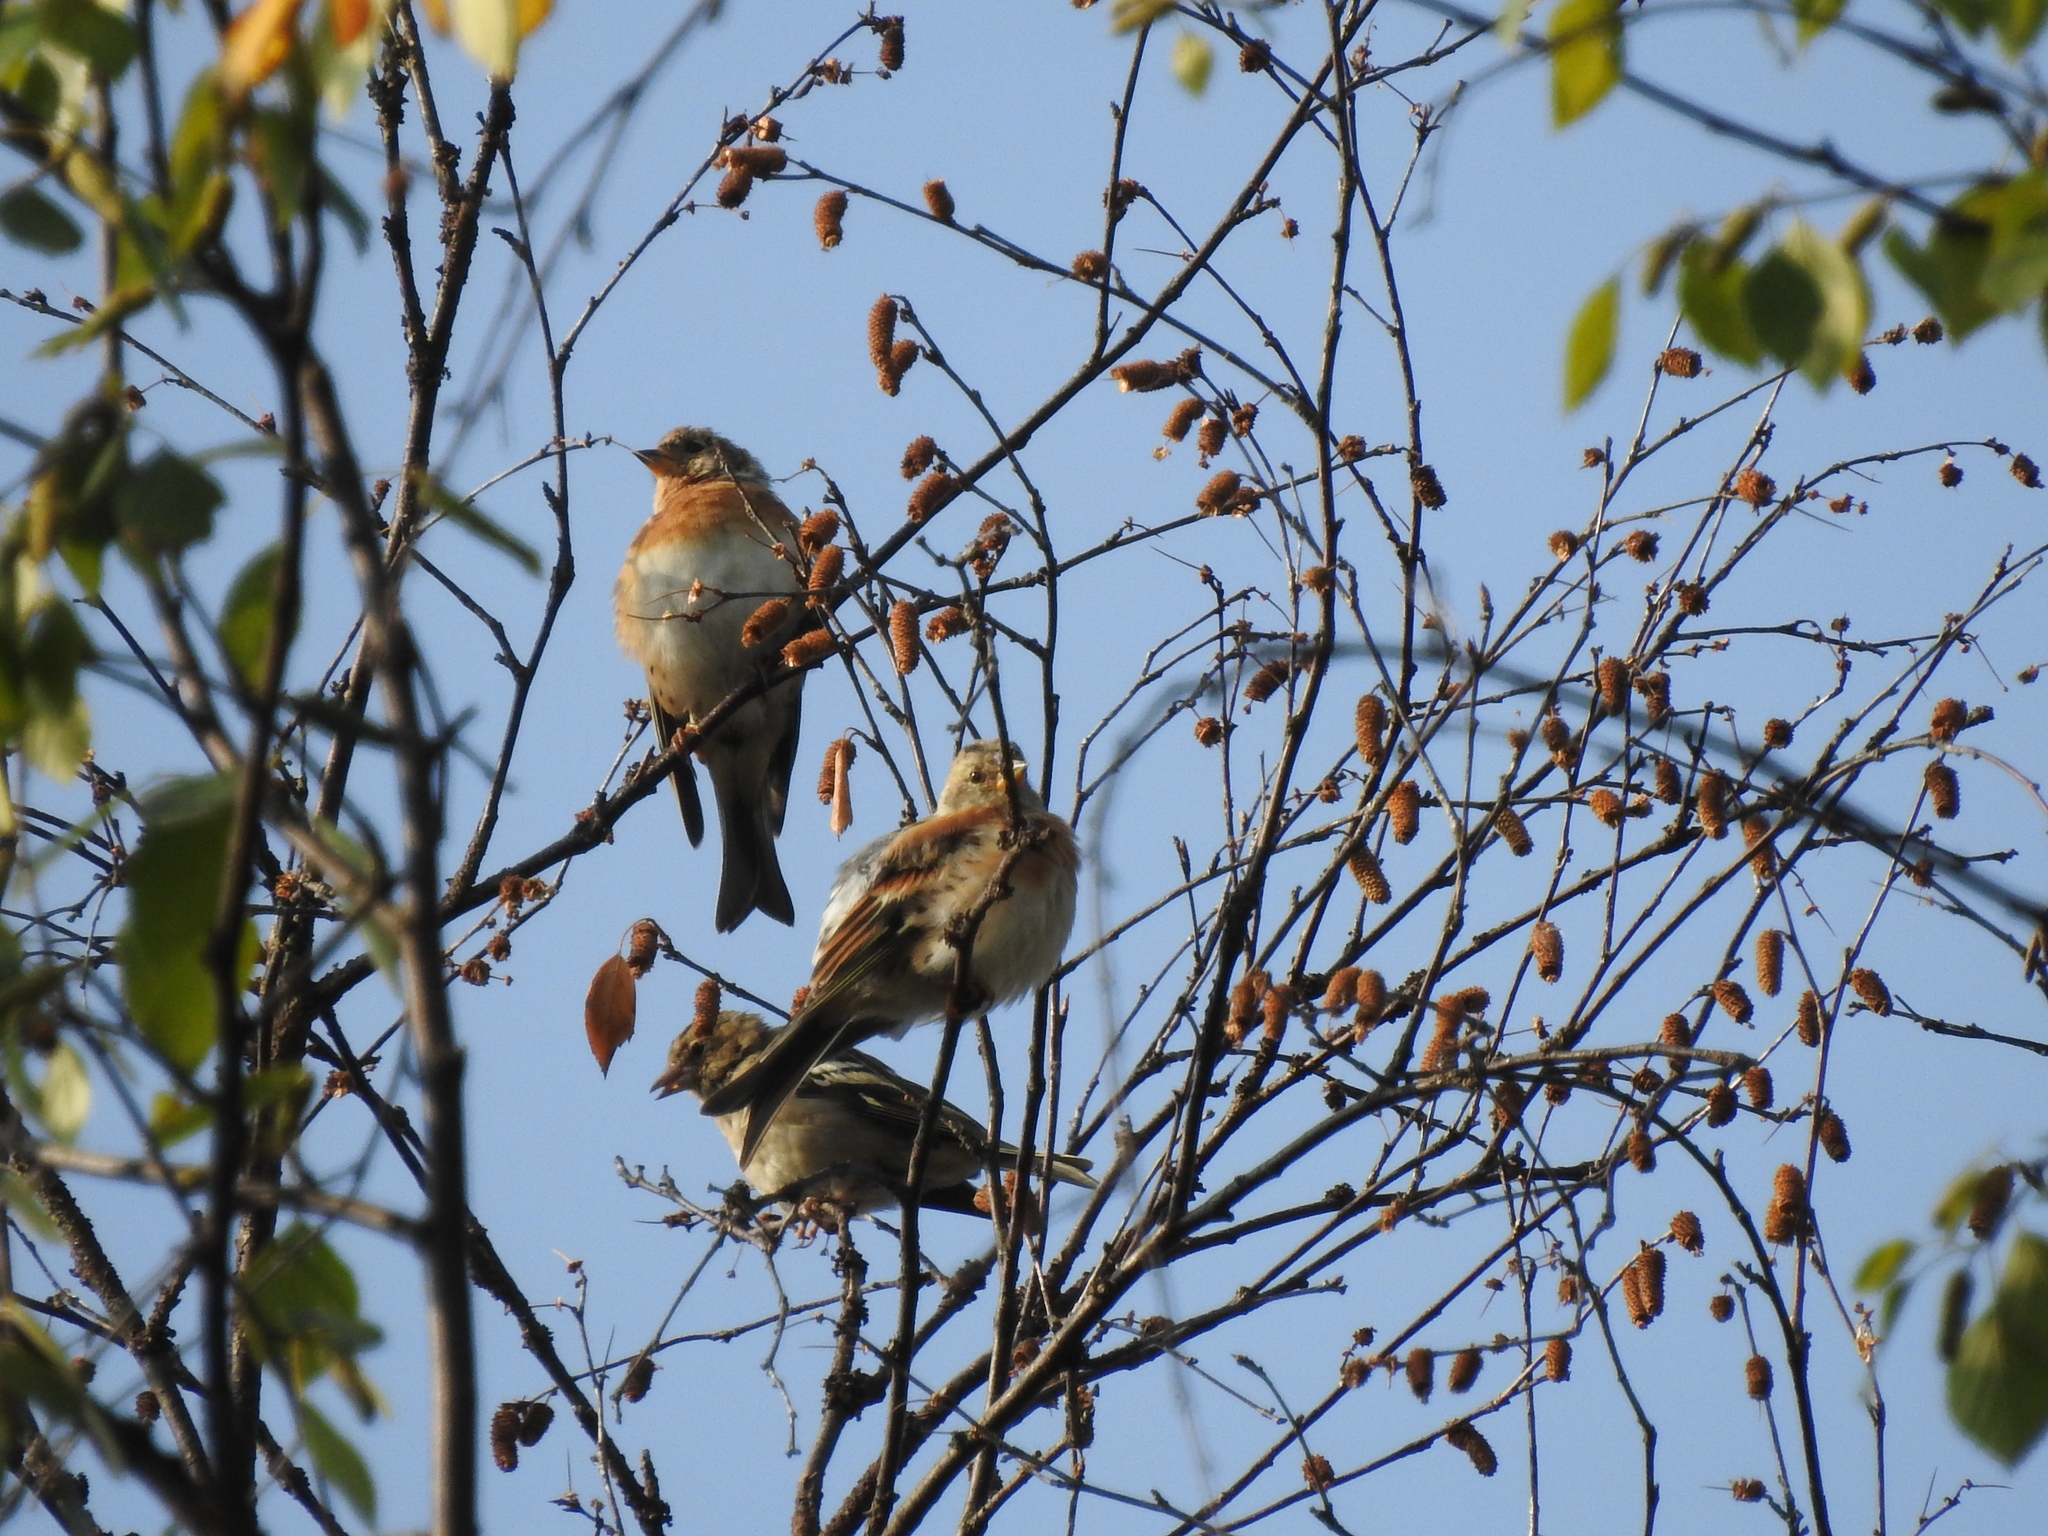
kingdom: Animalia
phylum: Chordata
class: Aves
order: Passeriformes
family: Fringillidae
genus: Fringilla
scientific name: Fringilla montifringilla
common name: Brambling
